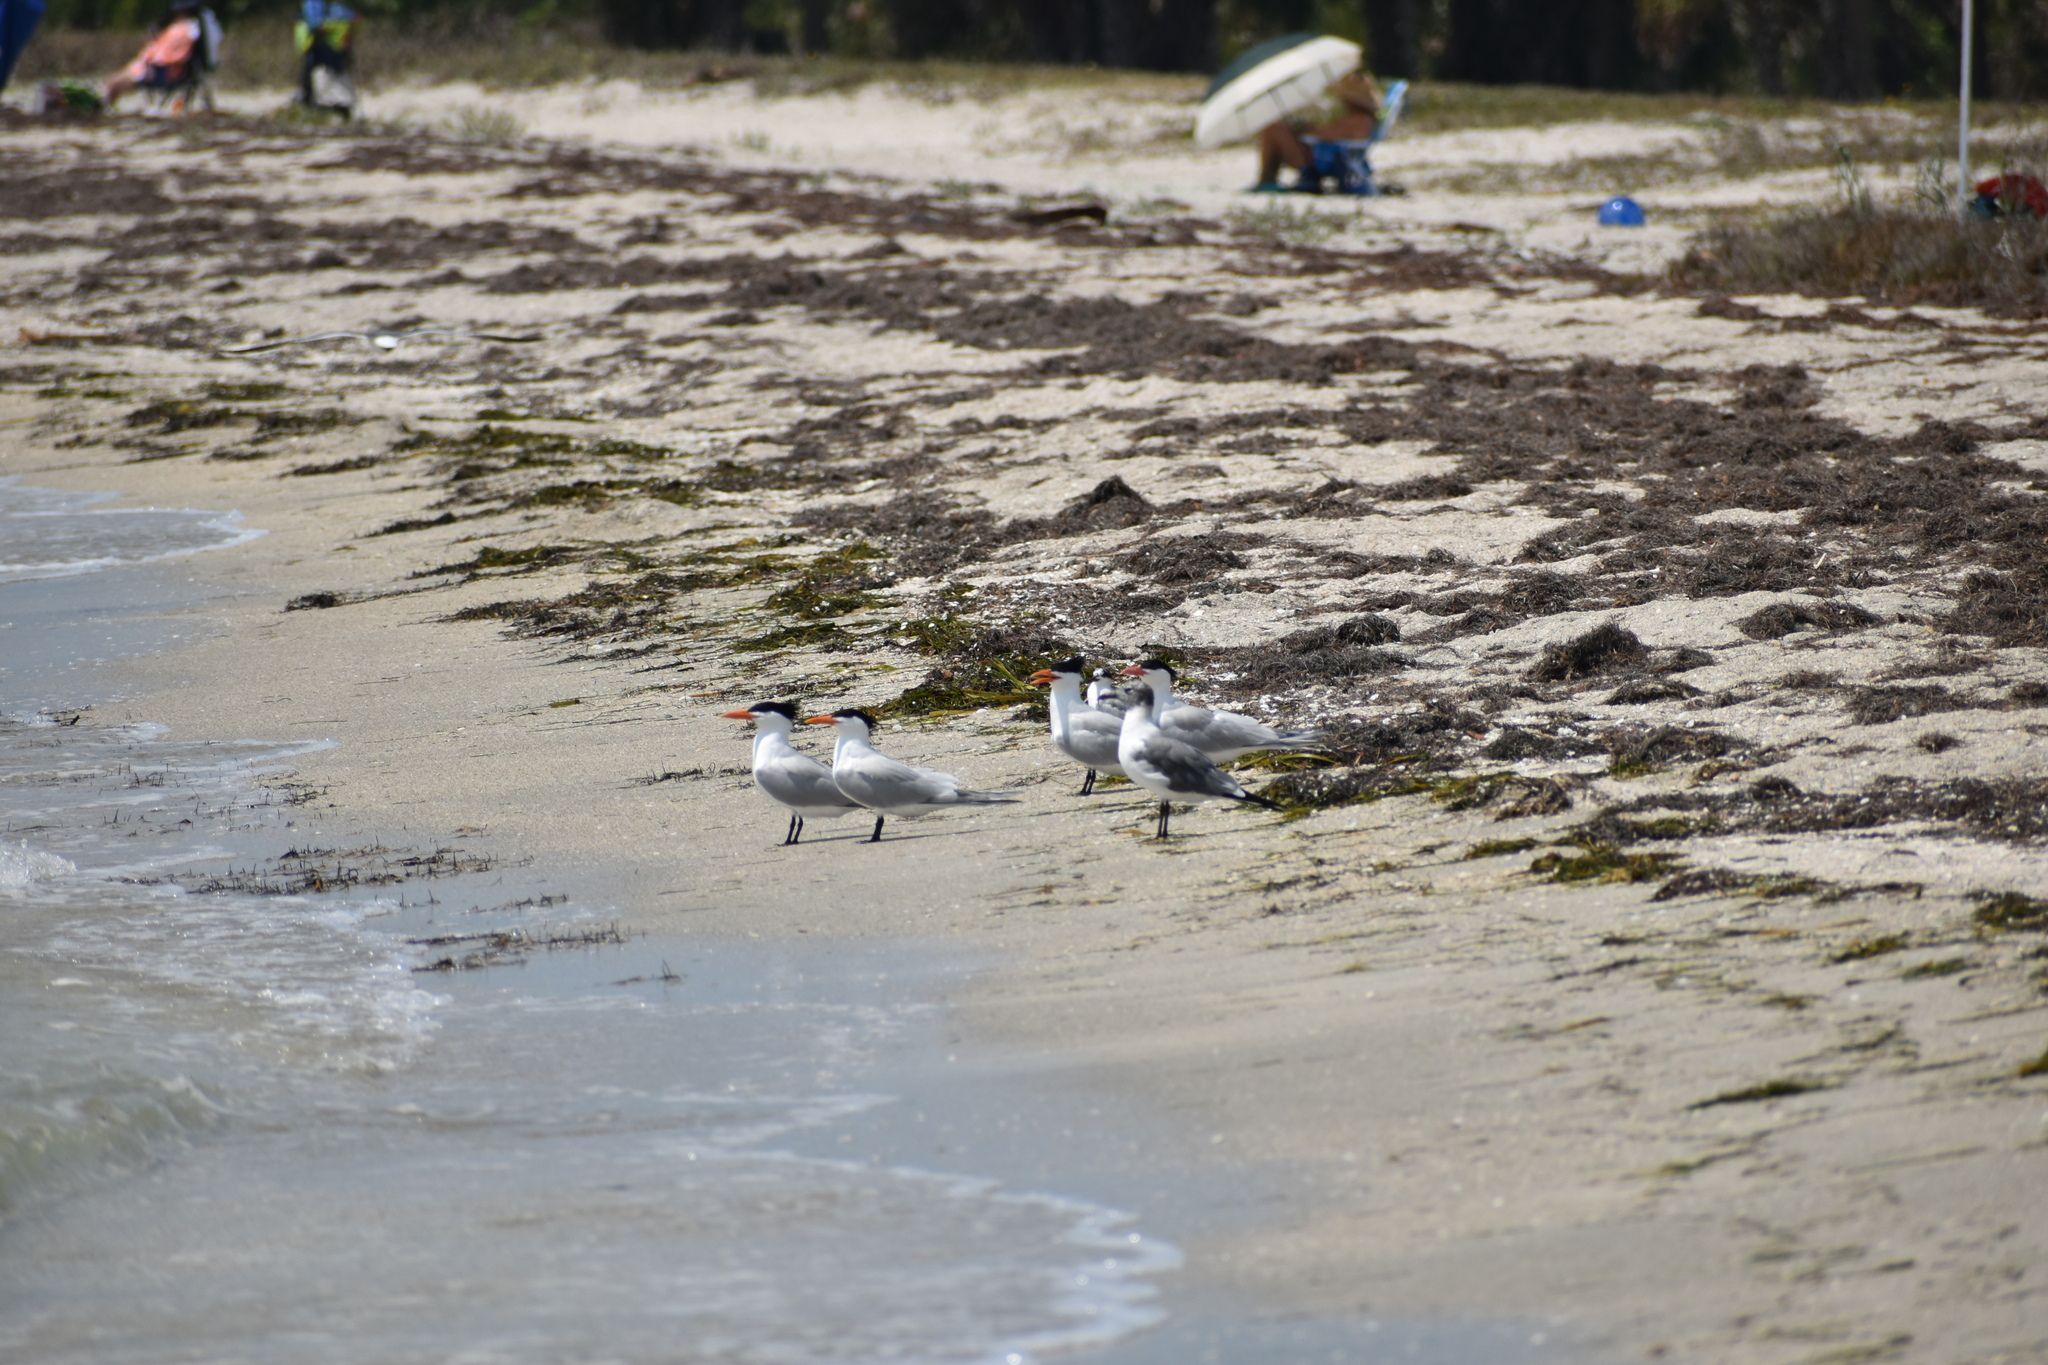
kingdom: Animalia
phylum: Chordata
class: Aves
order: Charadriiformes
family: Laridae
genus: Thalasseus
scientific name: Thalasseus maximus
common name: Royal tern
